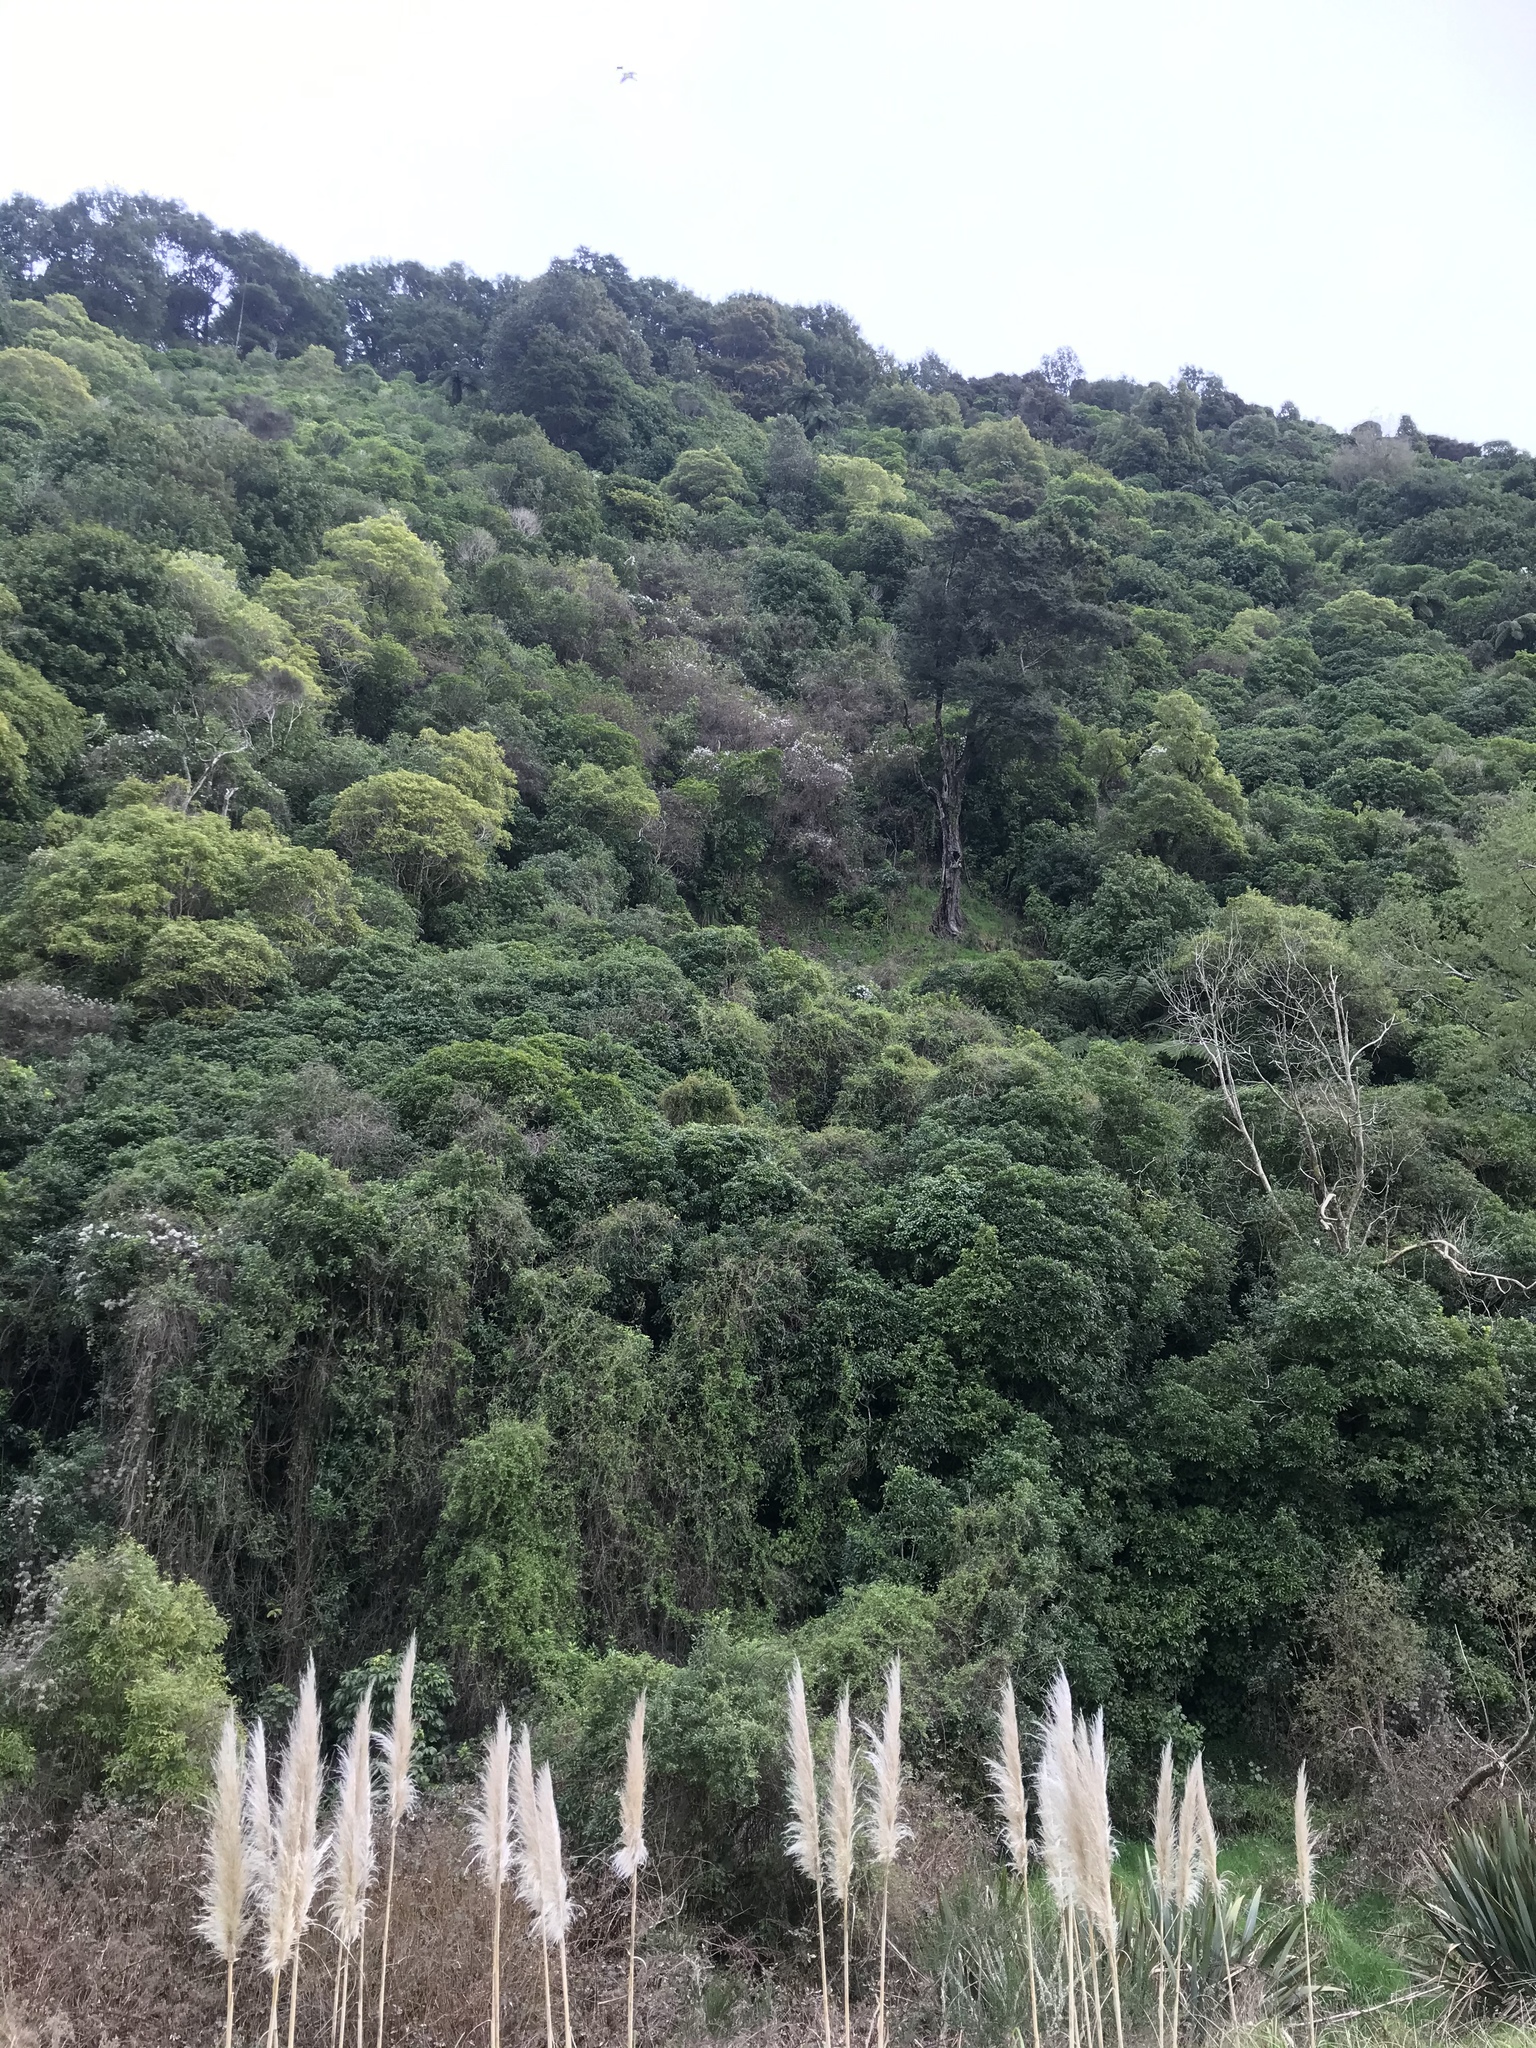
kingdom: Plantae
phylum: Tracheophyta
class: Magnoliopsida
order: Ranunculales
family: Ranunculaceae
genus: Clematis
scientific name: Clematis vitalba
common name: Evergreen clematis
